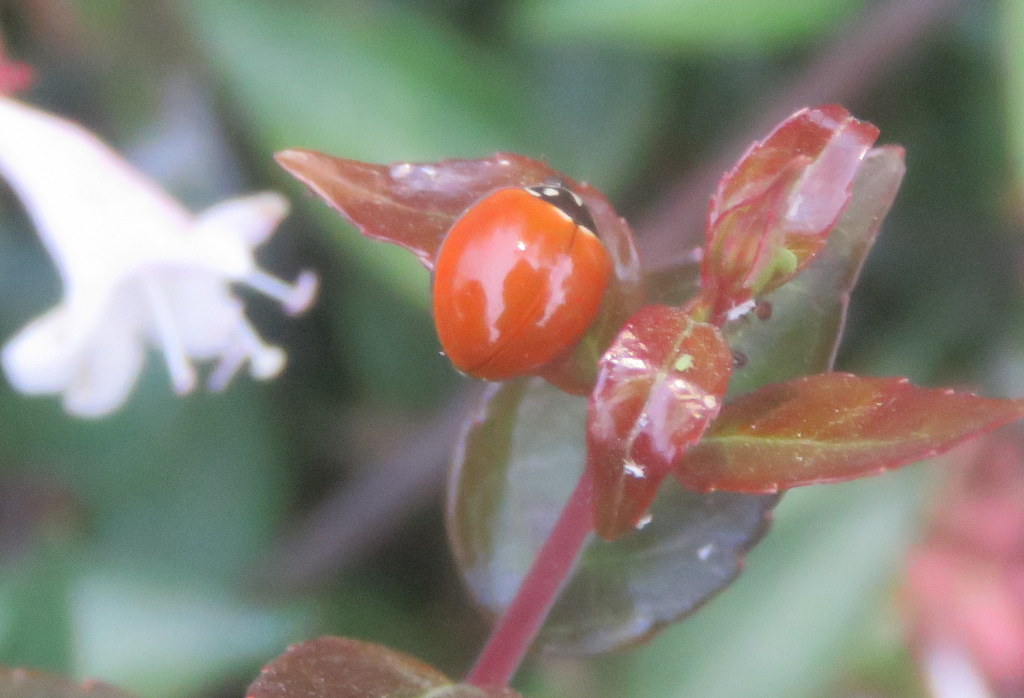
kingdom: Animalia
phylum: Arthropoda
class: Insecta
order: Coleoptera
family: Coccinellidae
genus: Cycloneda
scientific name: Cycloneda sanguinea
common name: Ladybird beetle
